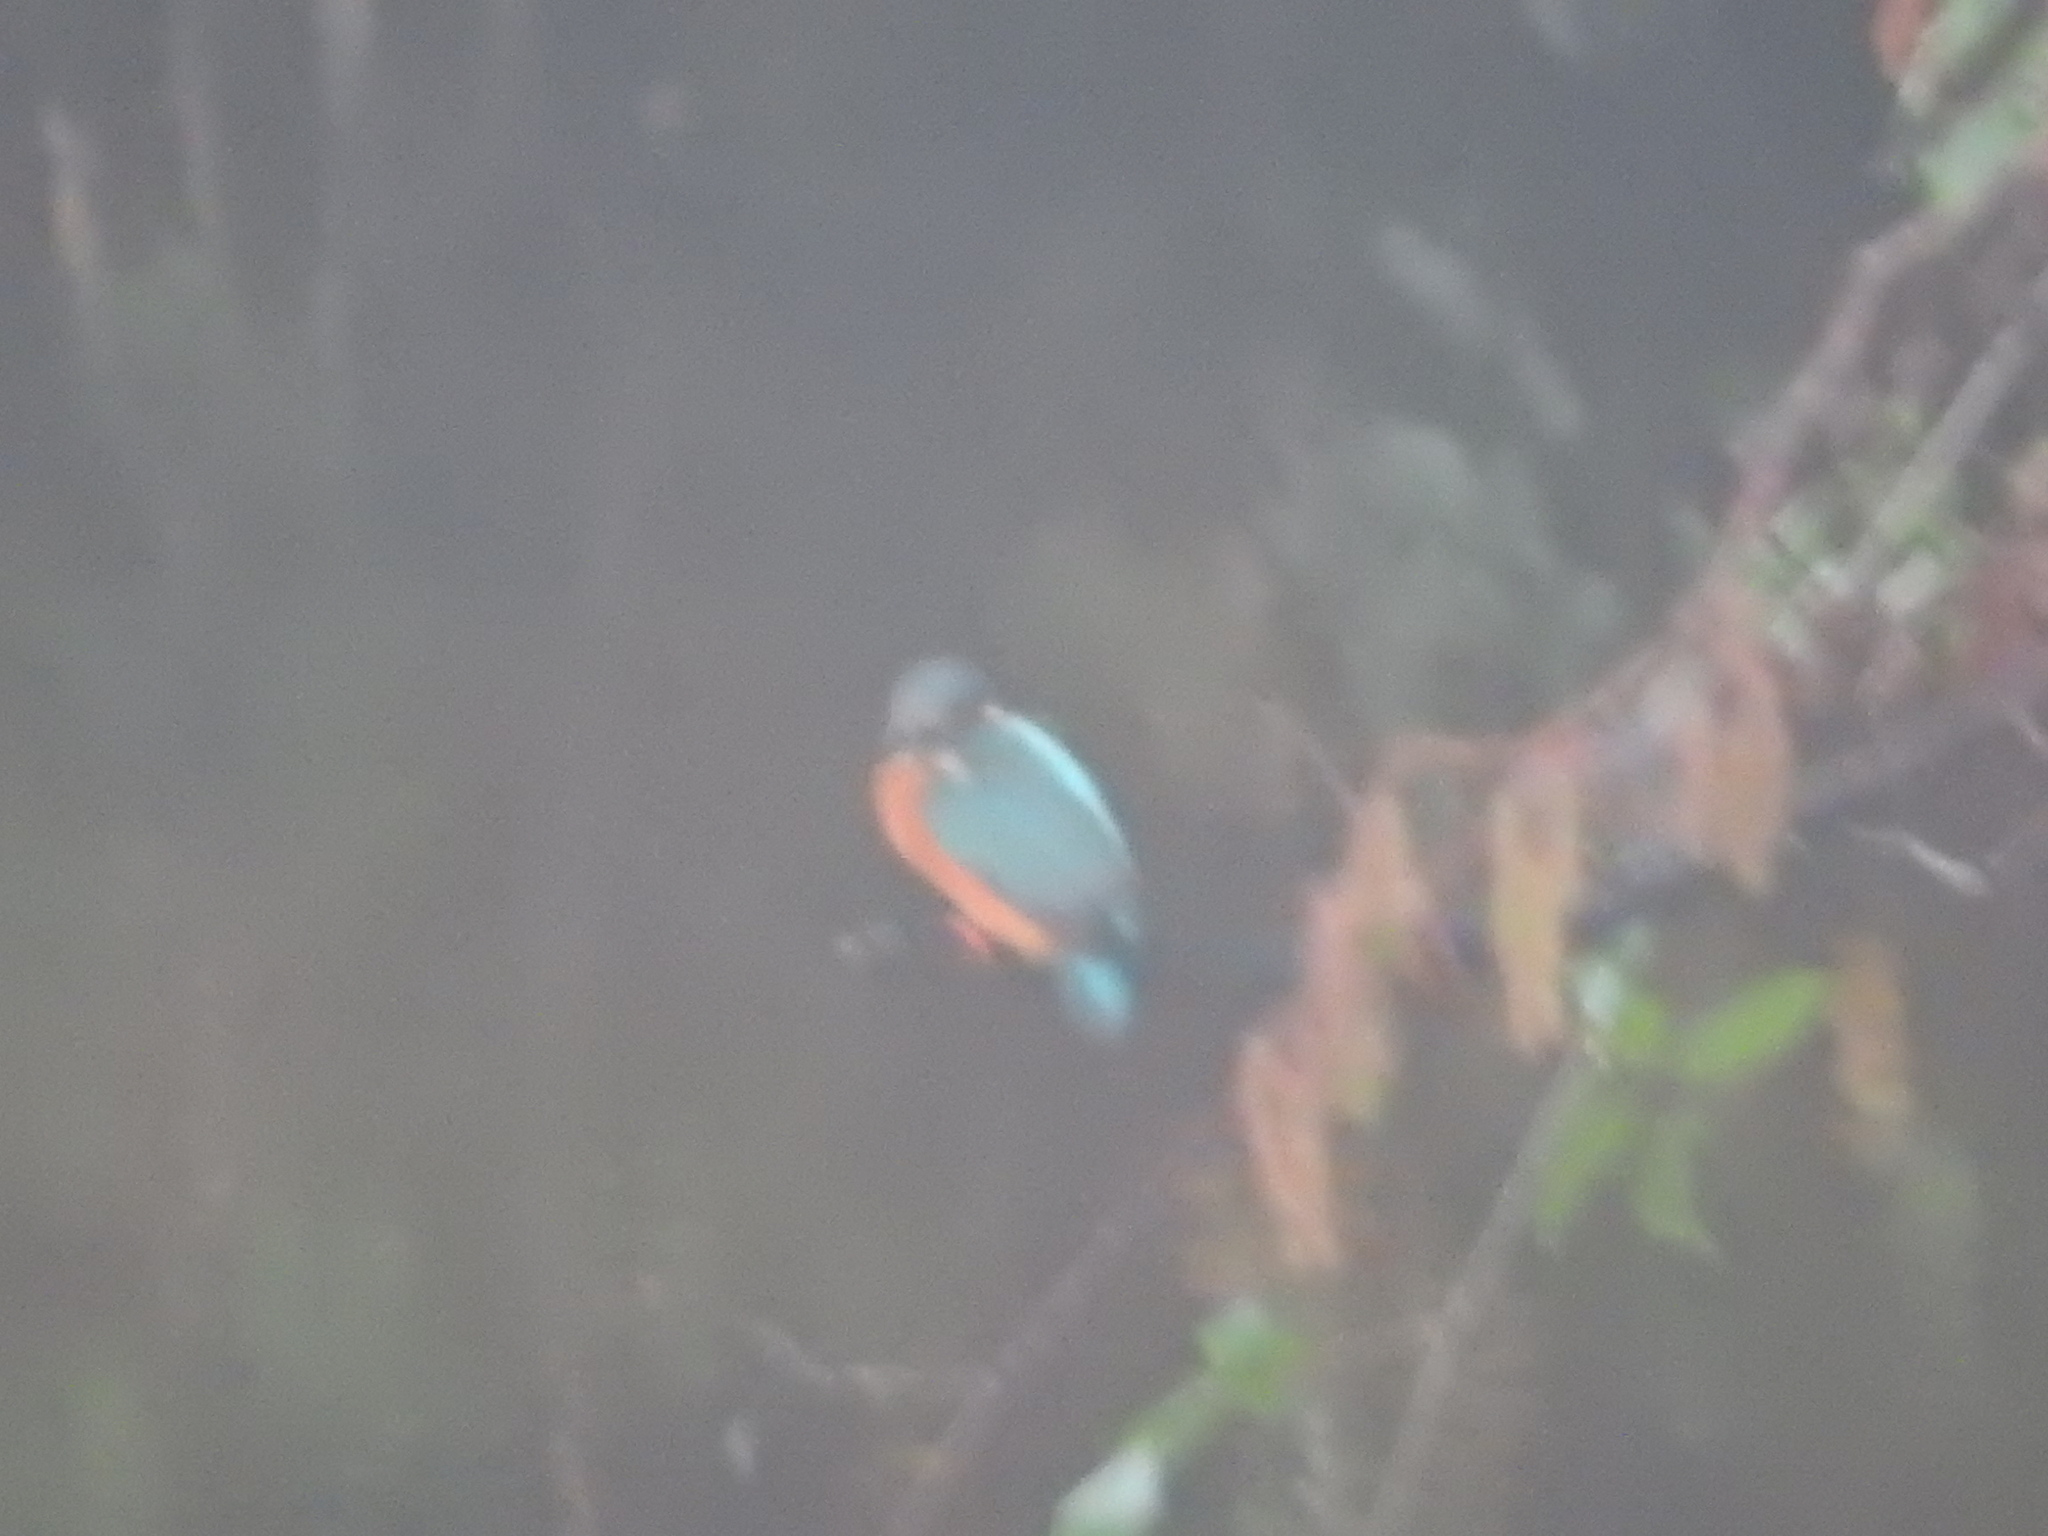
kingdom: Animalia
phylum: Chordata
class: Aves
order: Coraciiformes
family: Alcedinidae
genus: Alcedo
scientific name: Alcedo atthis
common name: Common kingfisher
